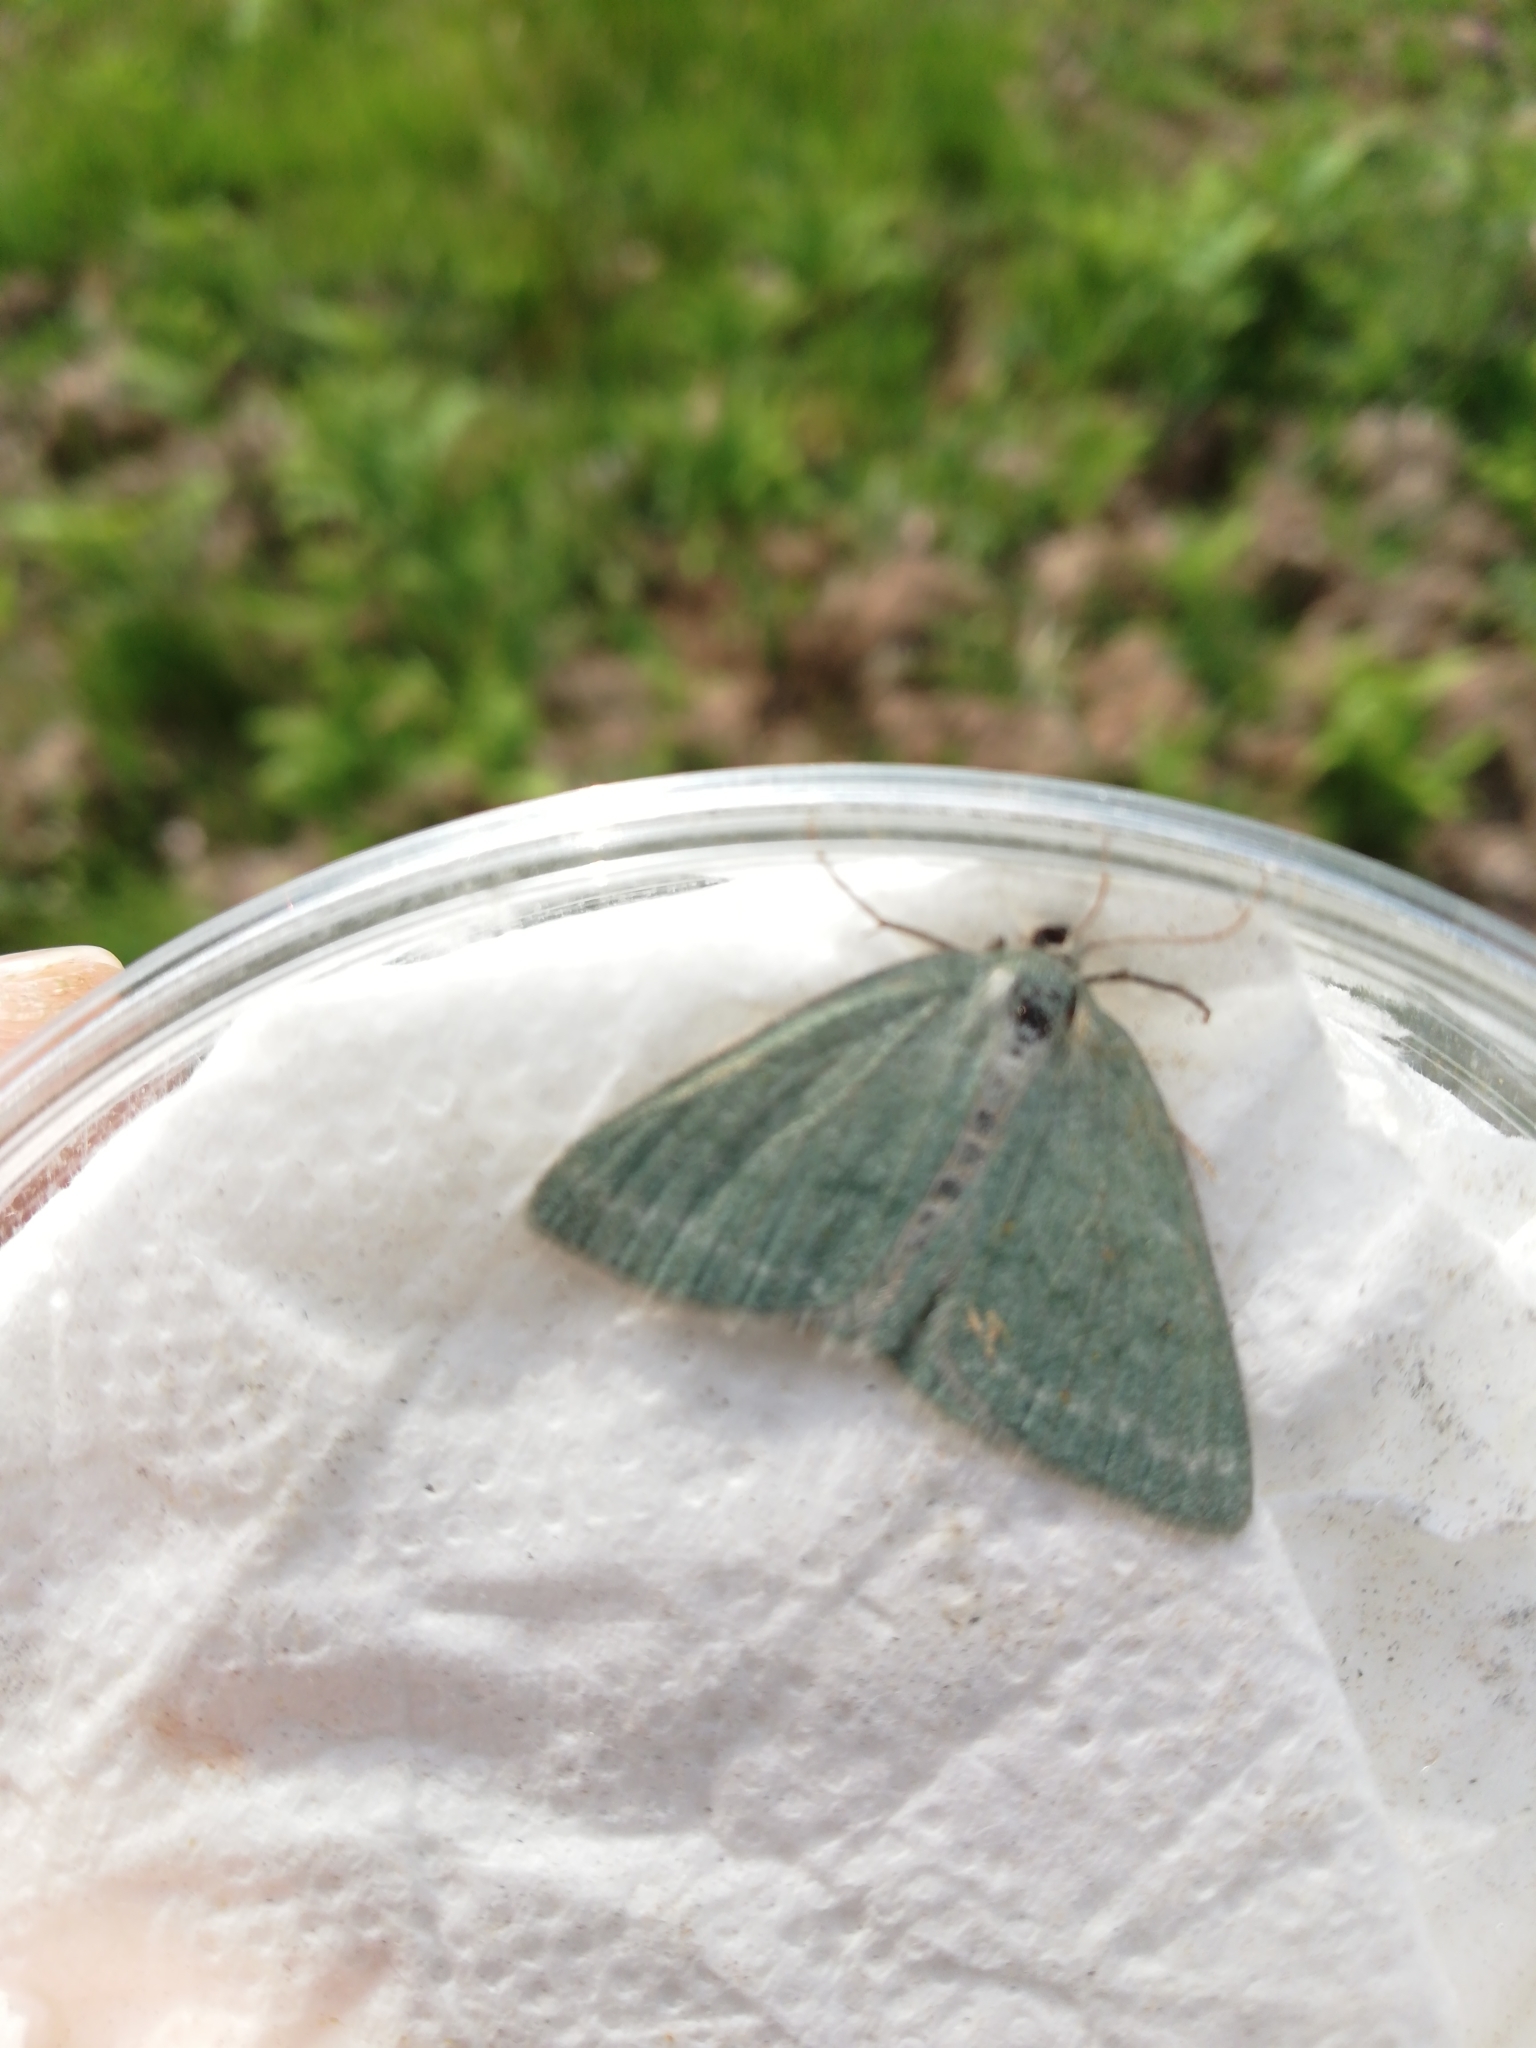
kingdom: Animalia
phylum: Arthropoda
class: Insecta
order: Lepidoptera
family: Geometridae
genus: Pseudoterpna
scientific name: Pseudoterpna pruinata
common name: Grass emerald
